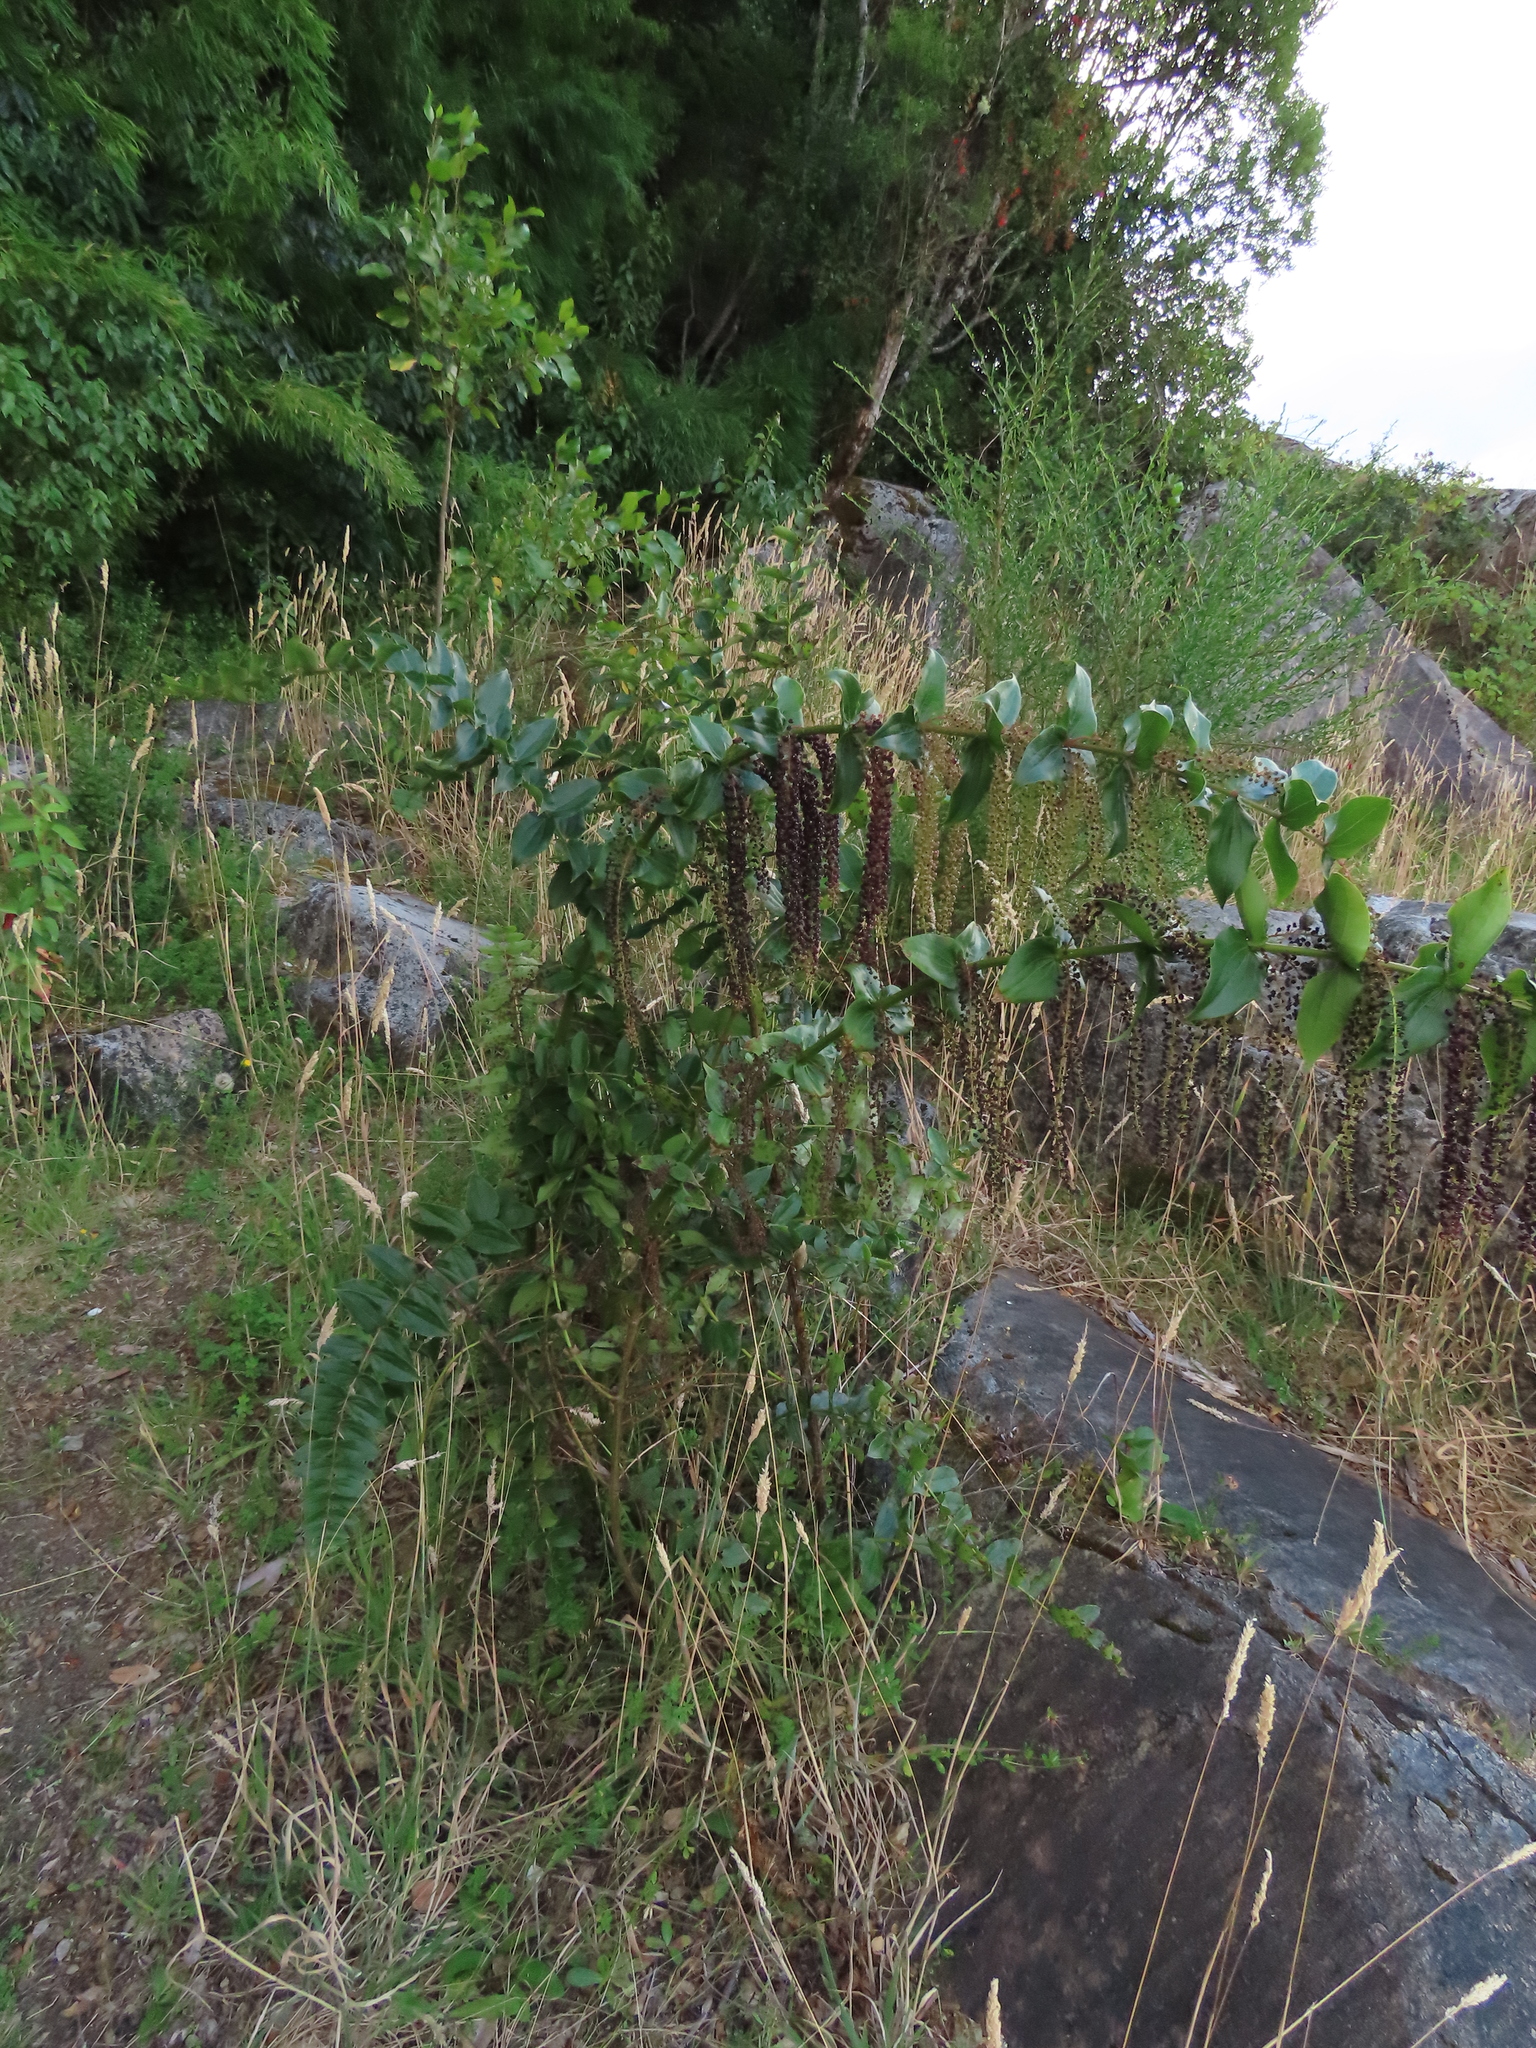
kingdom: Plantae
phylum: Tracheophyta
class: Magnoliopsida
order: Cucurbitales
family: Coriariaceae
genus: Coriaria
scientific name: Coriaria ruscifolia
